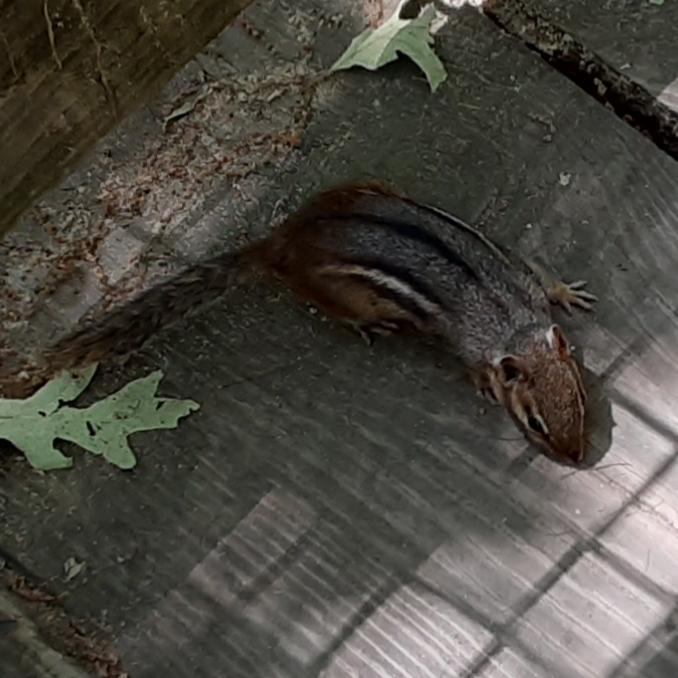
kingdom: Animalia
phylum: Chordata
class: Mammalia
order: Rodentia
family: Sciuridae
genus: Tamias
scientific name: Tamias striatus
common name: Eastern chipmunk
